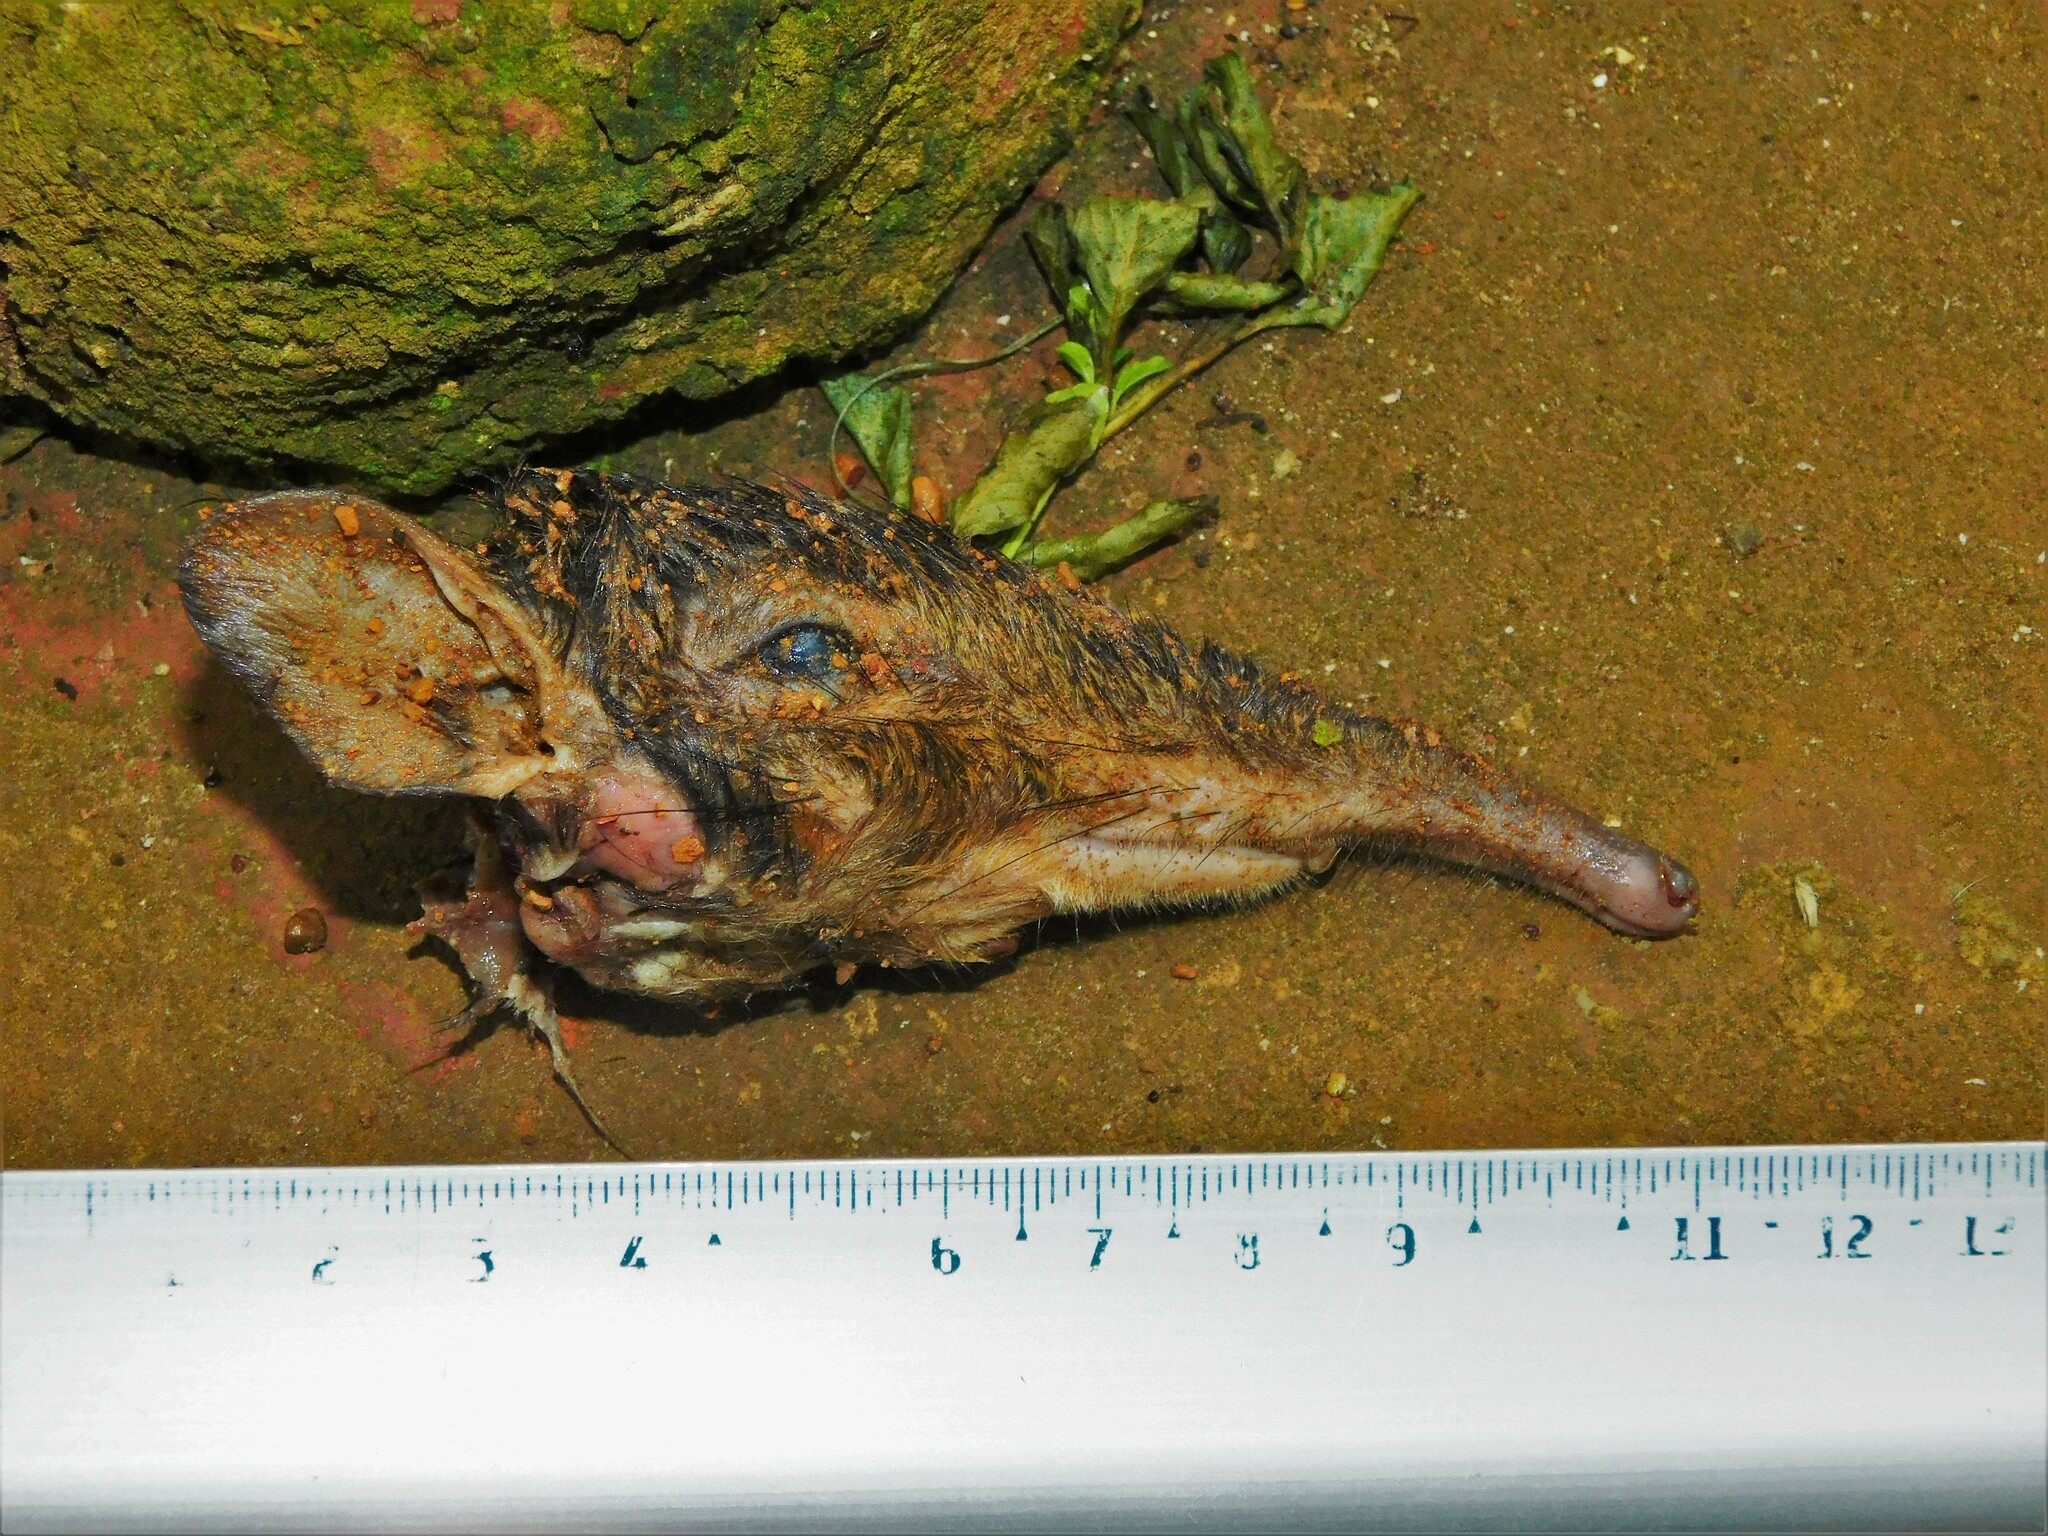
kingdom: Animalia
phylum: Chordata
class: Mammalia
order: Macroscelidea
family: Macroscelididae
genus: Rhynchocyon
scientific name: Rhynchocyon cirnei
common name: Checkered elephant shrew
